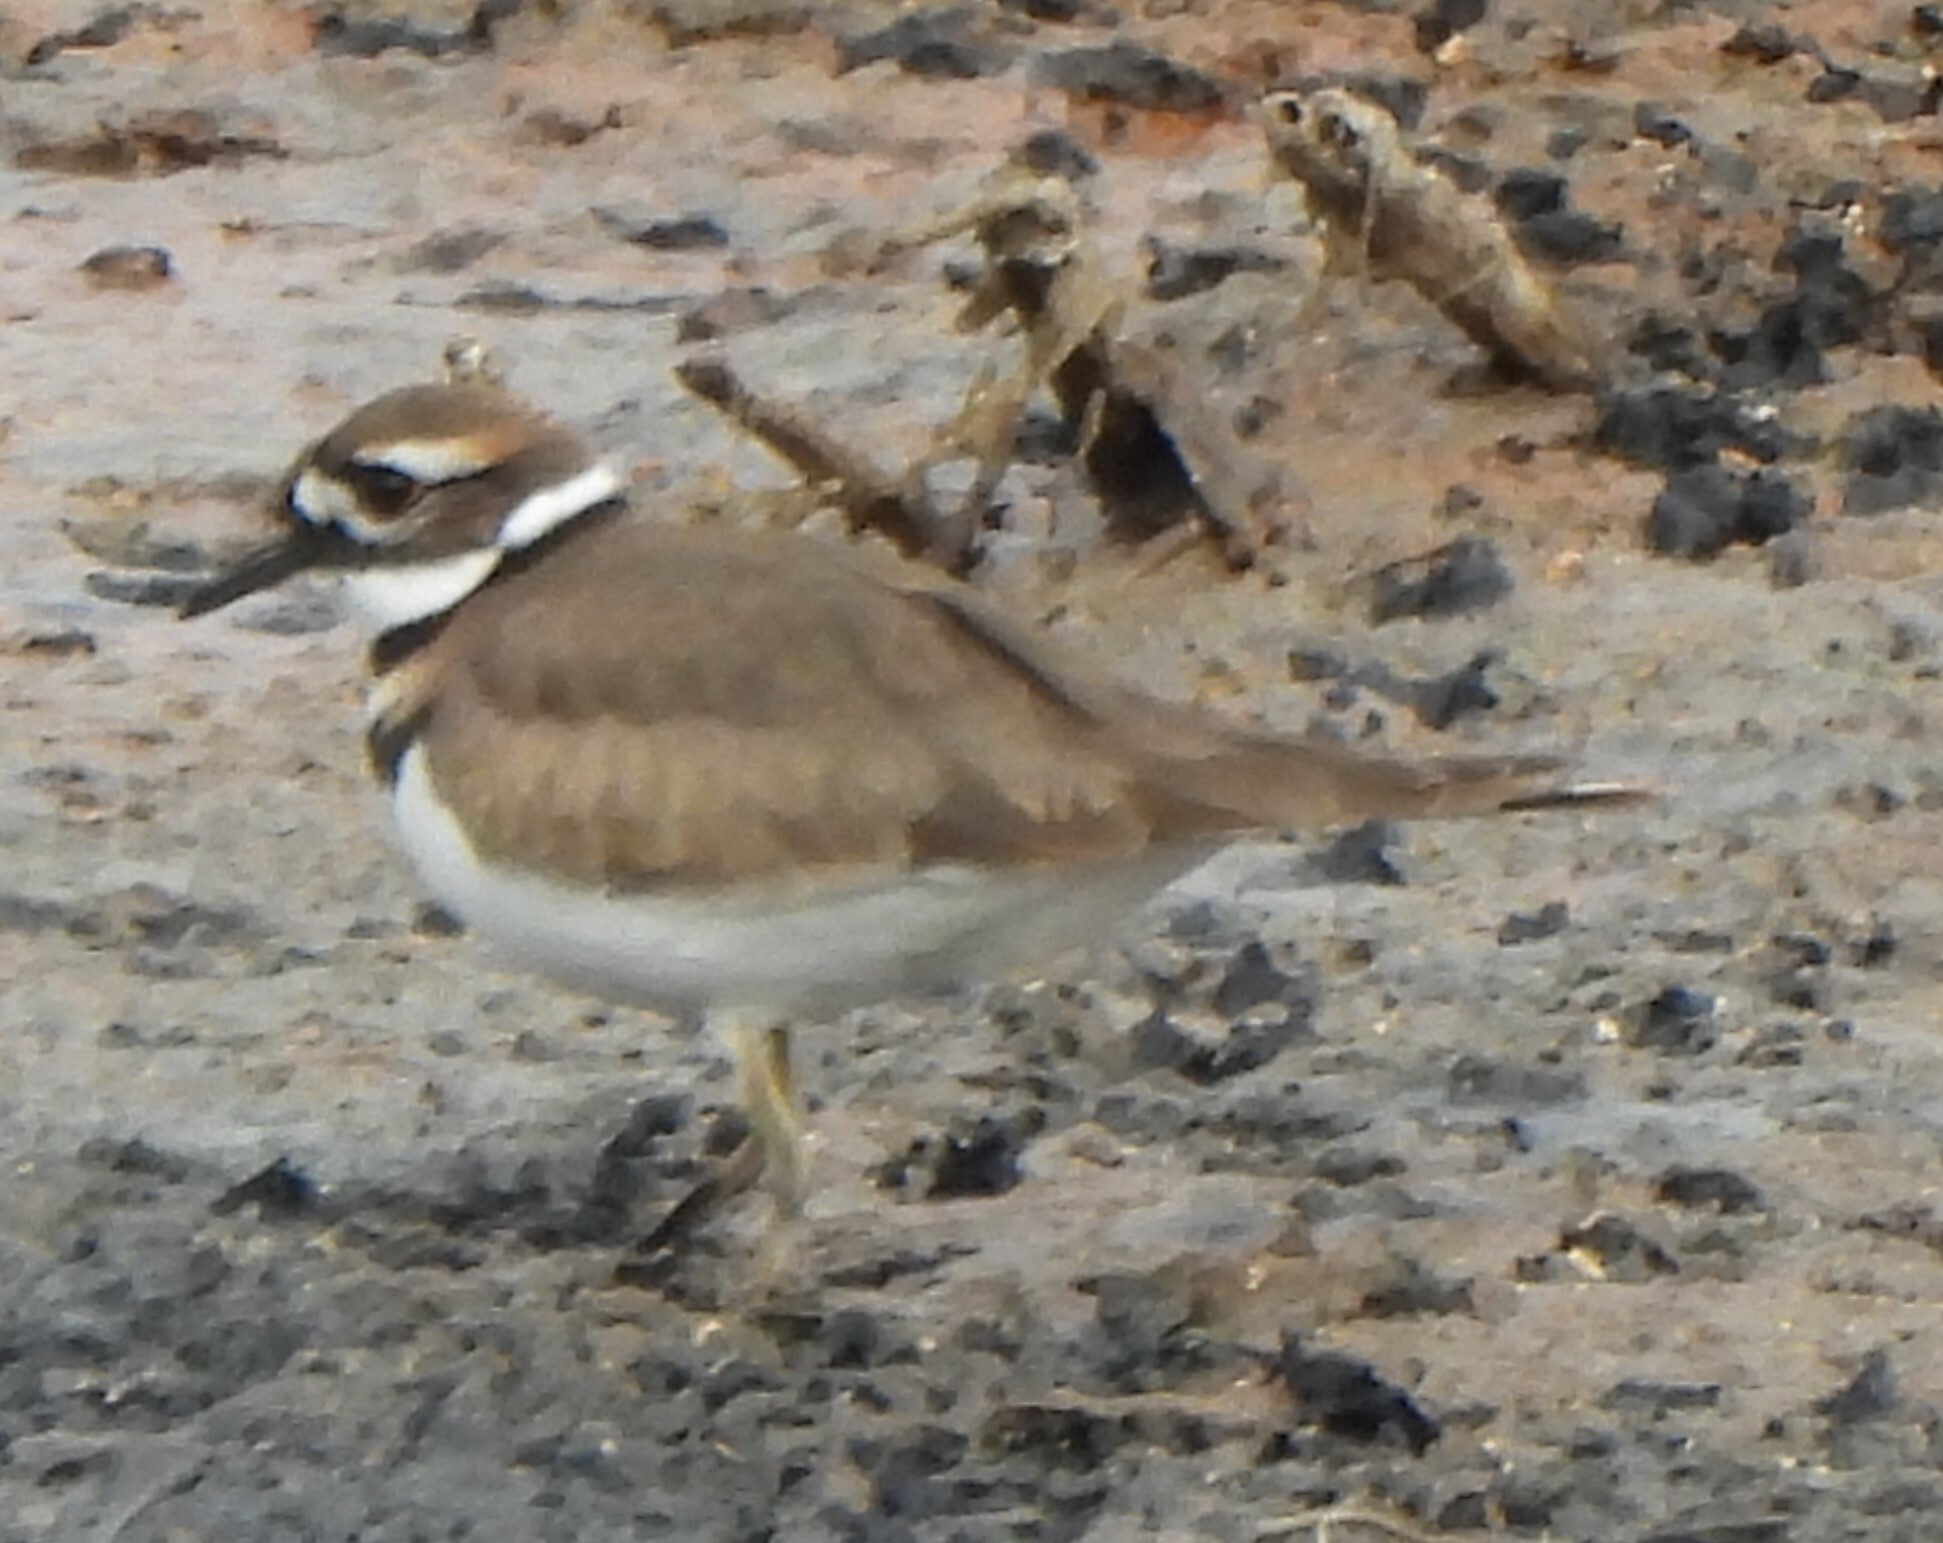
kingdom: Animalia
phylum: Chordata
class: Aves
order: Charadriiformes
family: Charadriidae
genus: Charadrius
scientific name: Charadrius vociferus
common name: Killdeer
